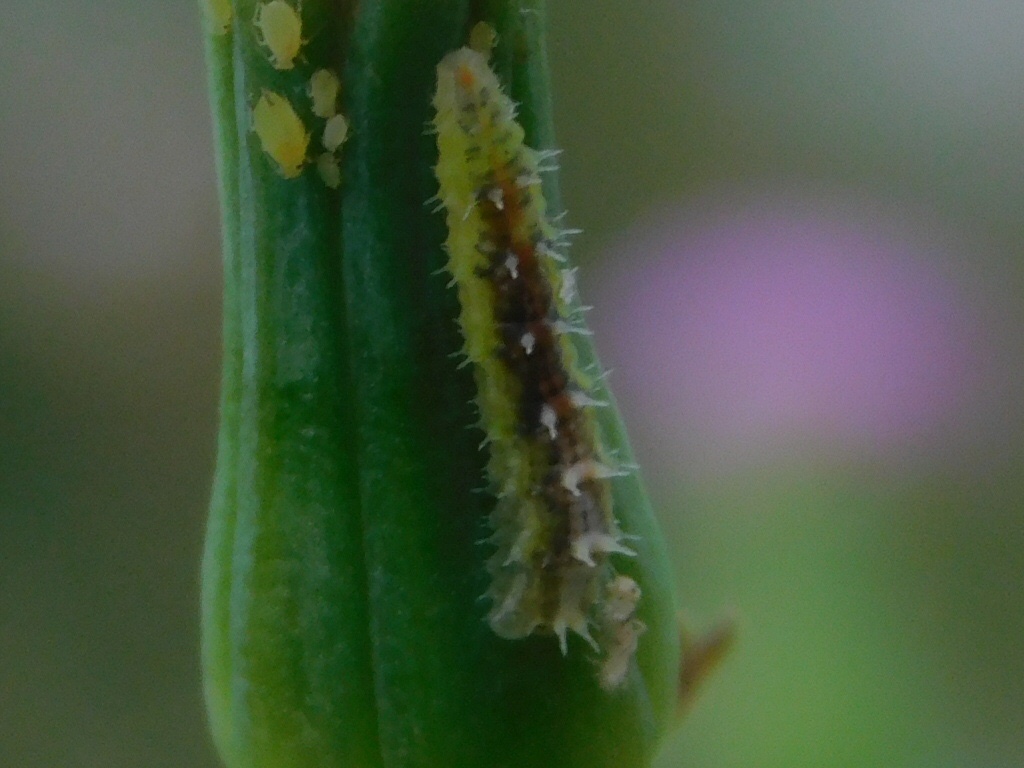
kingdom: Animalia
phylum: Arthropoda
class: Insecta
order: Diptera
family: Syrphidae
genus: Dioprosopa
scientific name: Dioprosopa clavatus
